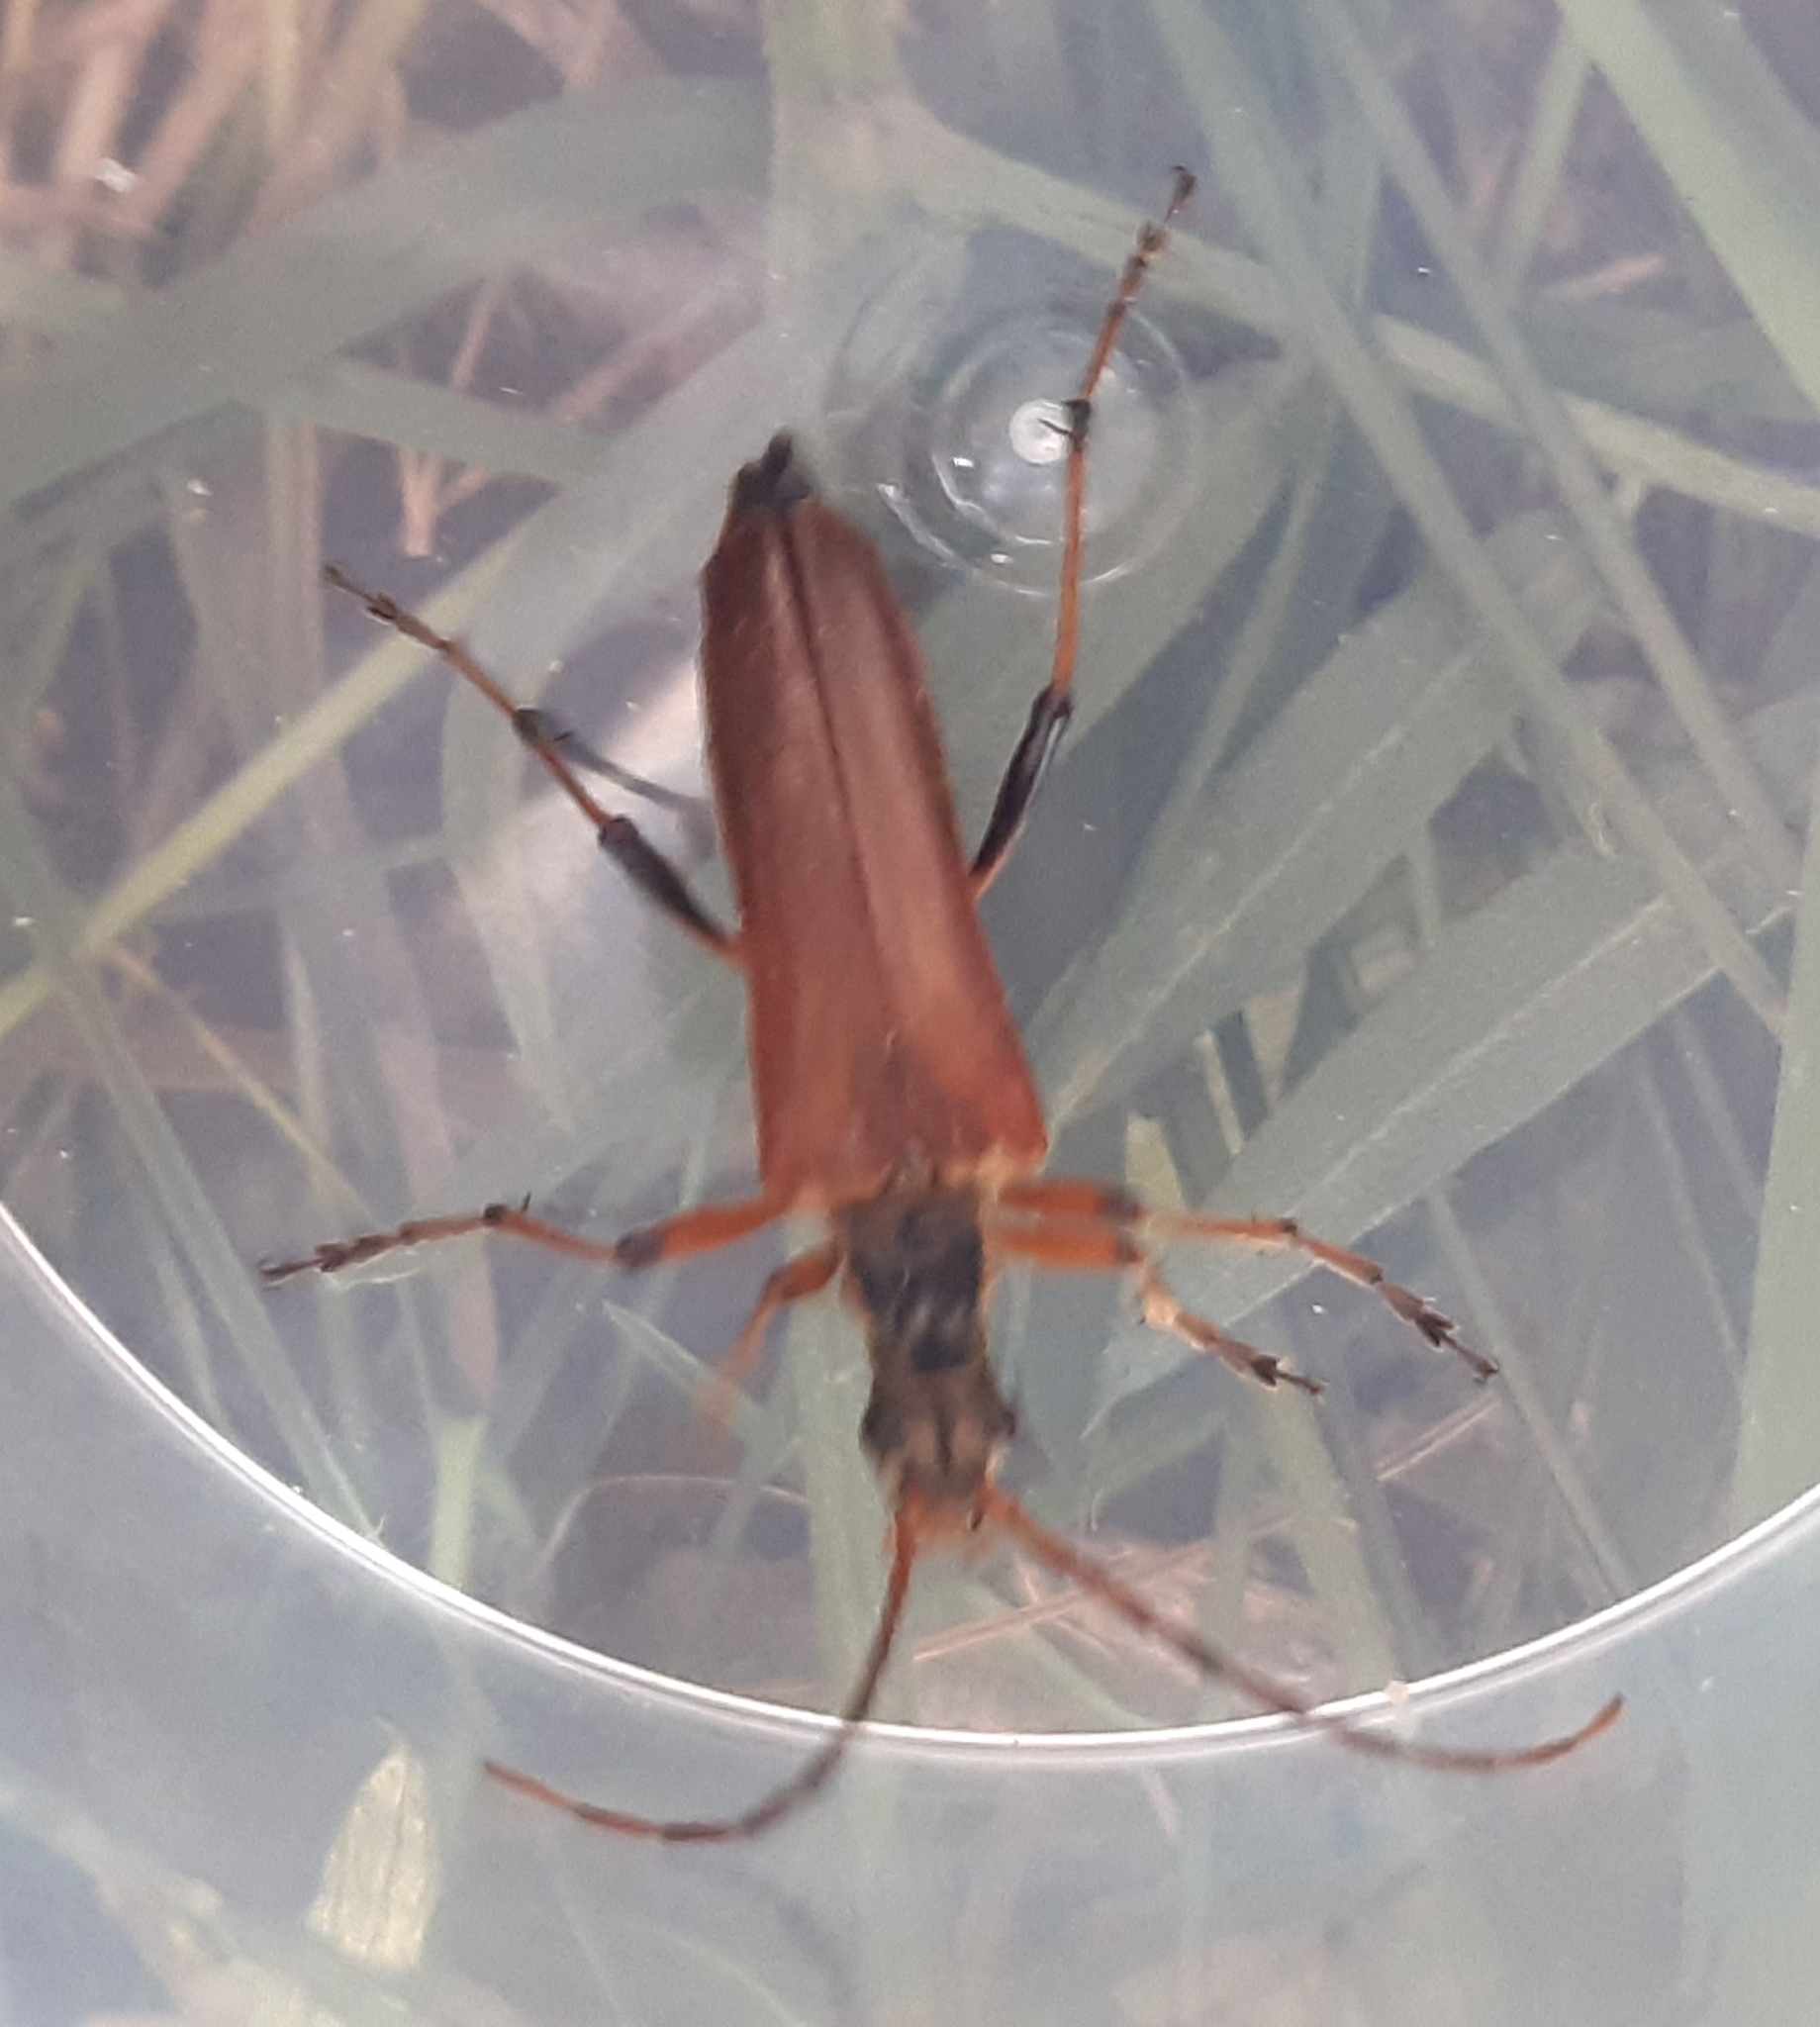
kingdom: Animalia
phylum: Arthropoda
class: Insecta
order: Coleoptera
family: Cerambycidae
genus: Stenocorus
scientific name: Stenocorus meridianus
